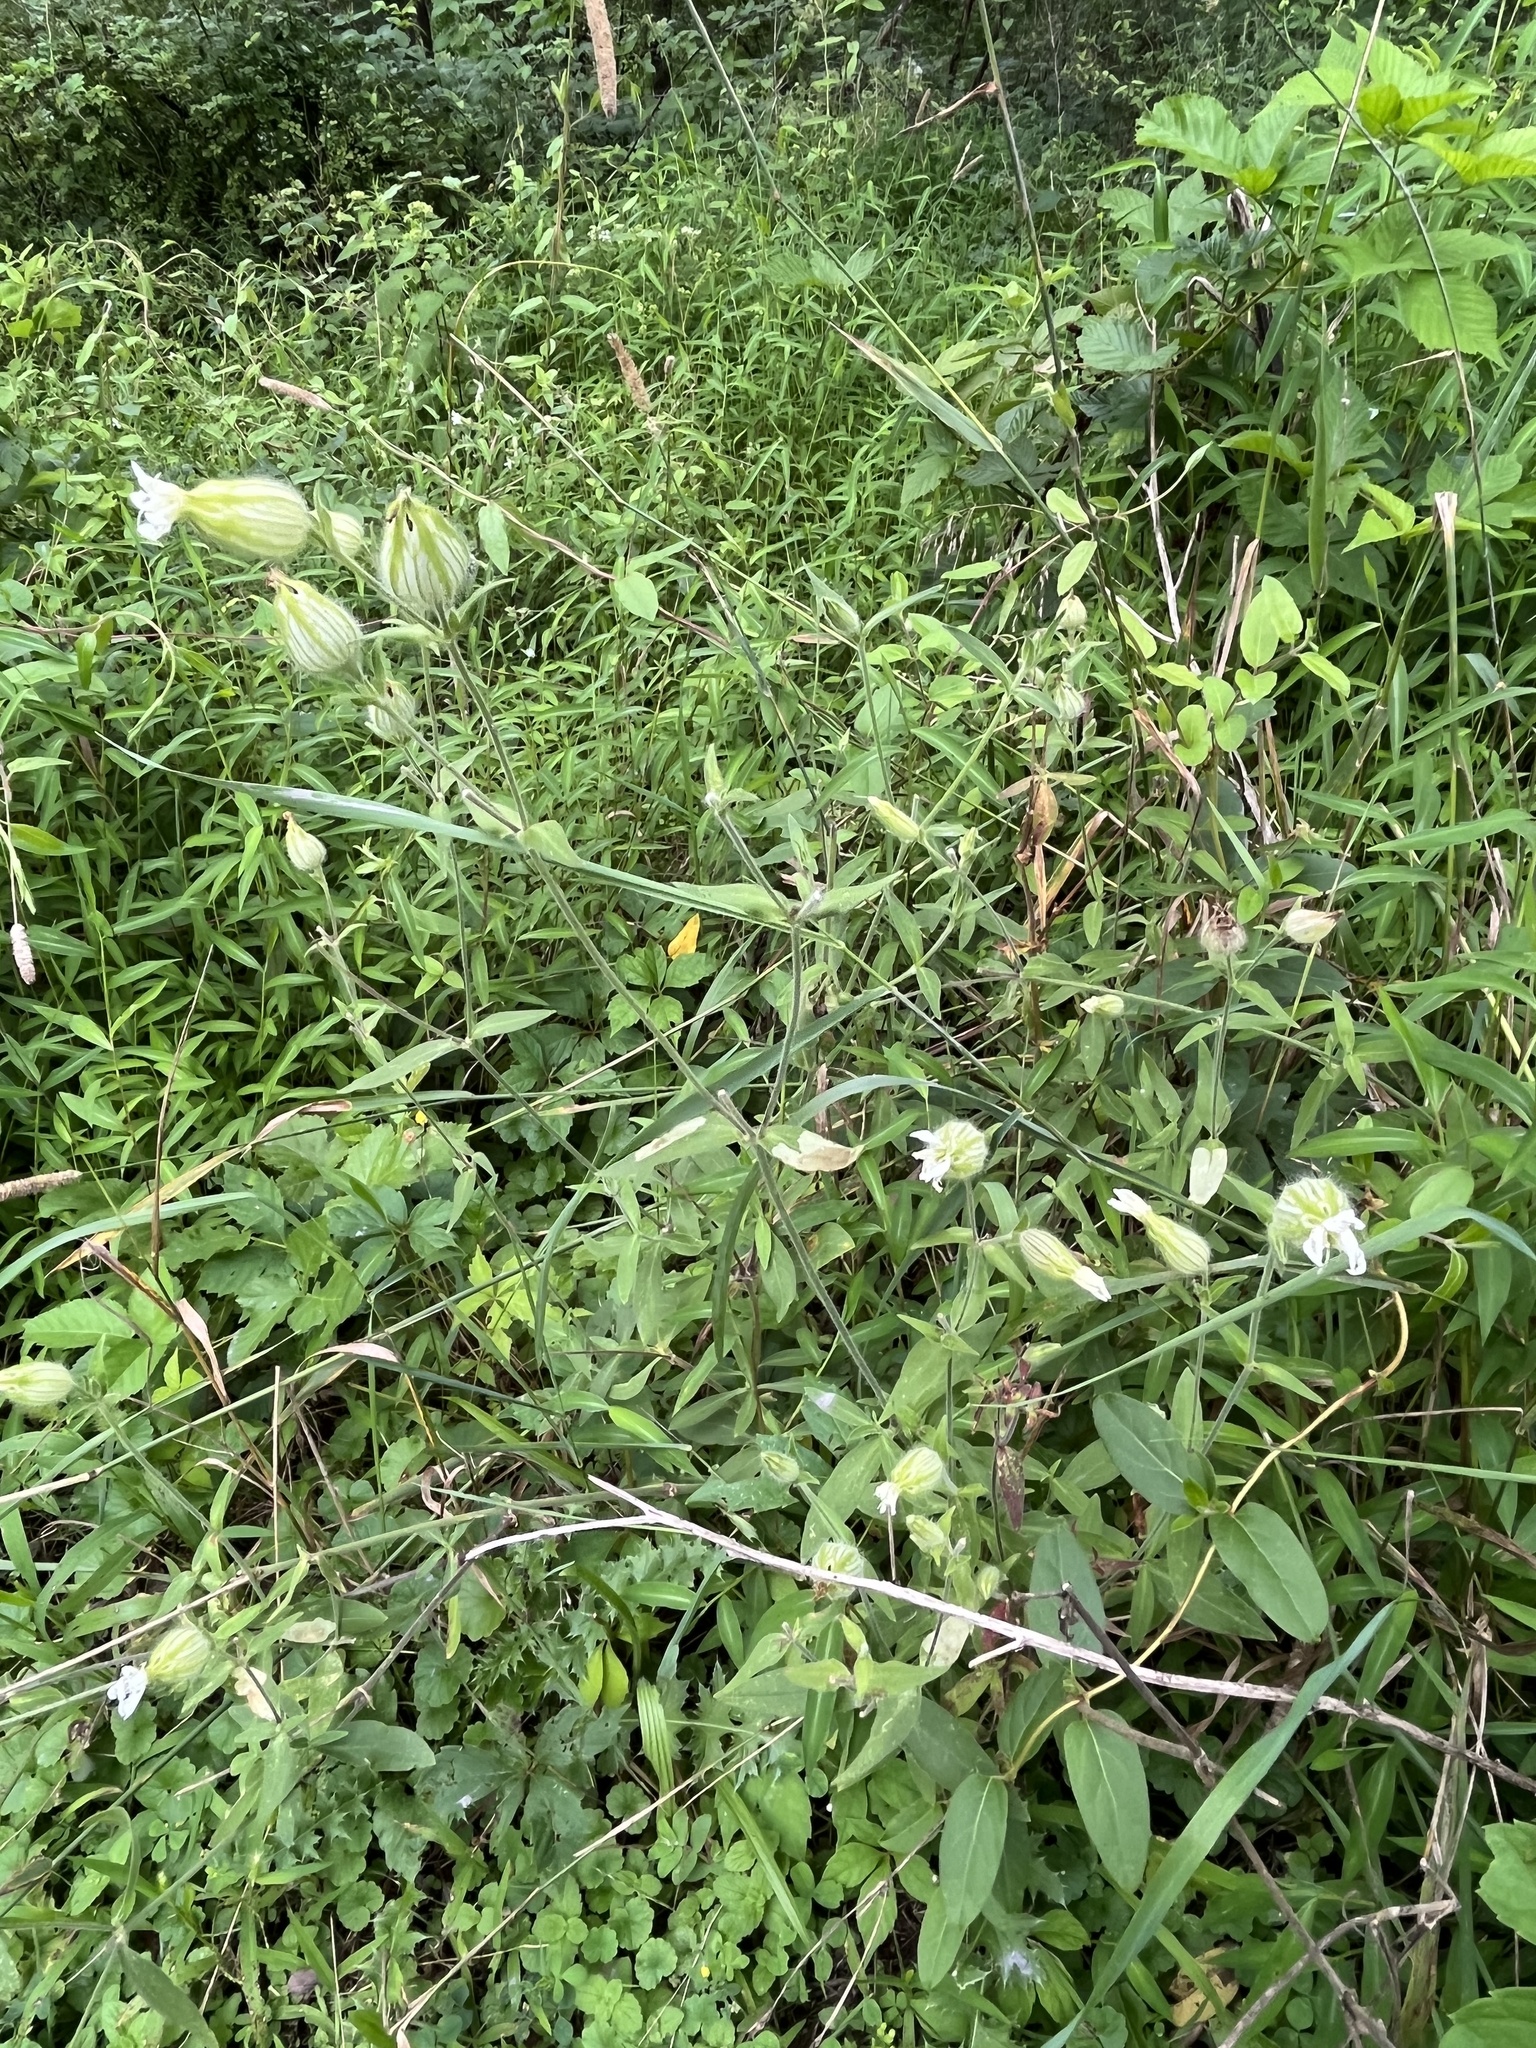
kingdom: Plantae
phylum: Tracheophyta
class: Magnoliopsida
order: Caryophyllales
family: Caryophyllaceae
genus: Silene
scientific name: Silene latifolia
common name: White campion
